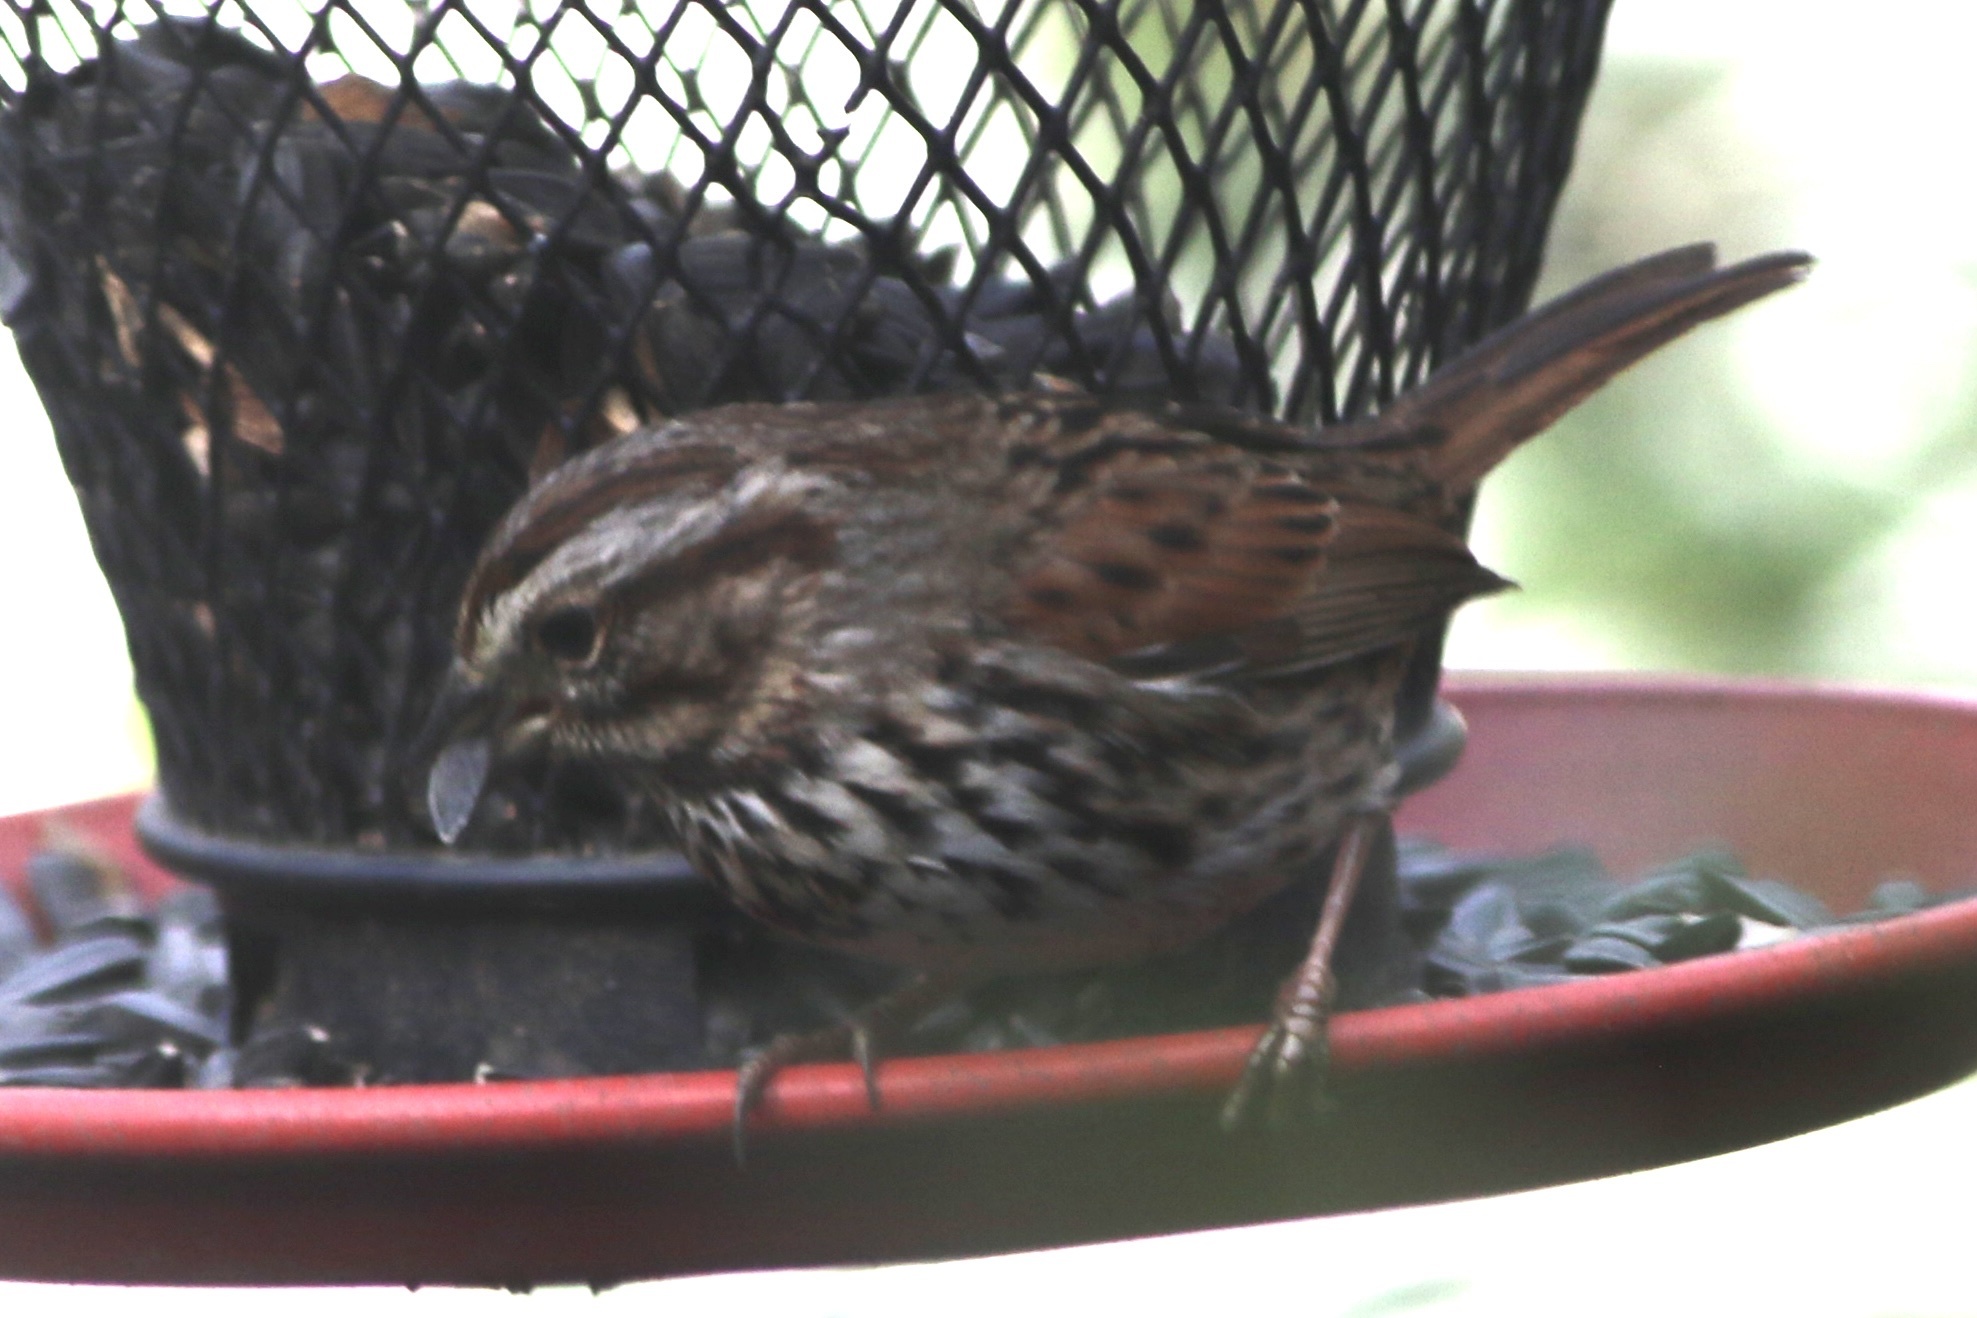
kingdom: Animalia
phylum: Chordata
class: Aves
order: Passeriformes
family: Passerellidae
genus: Melospiza
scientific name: Melospiza melodia
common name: Song sparrow
